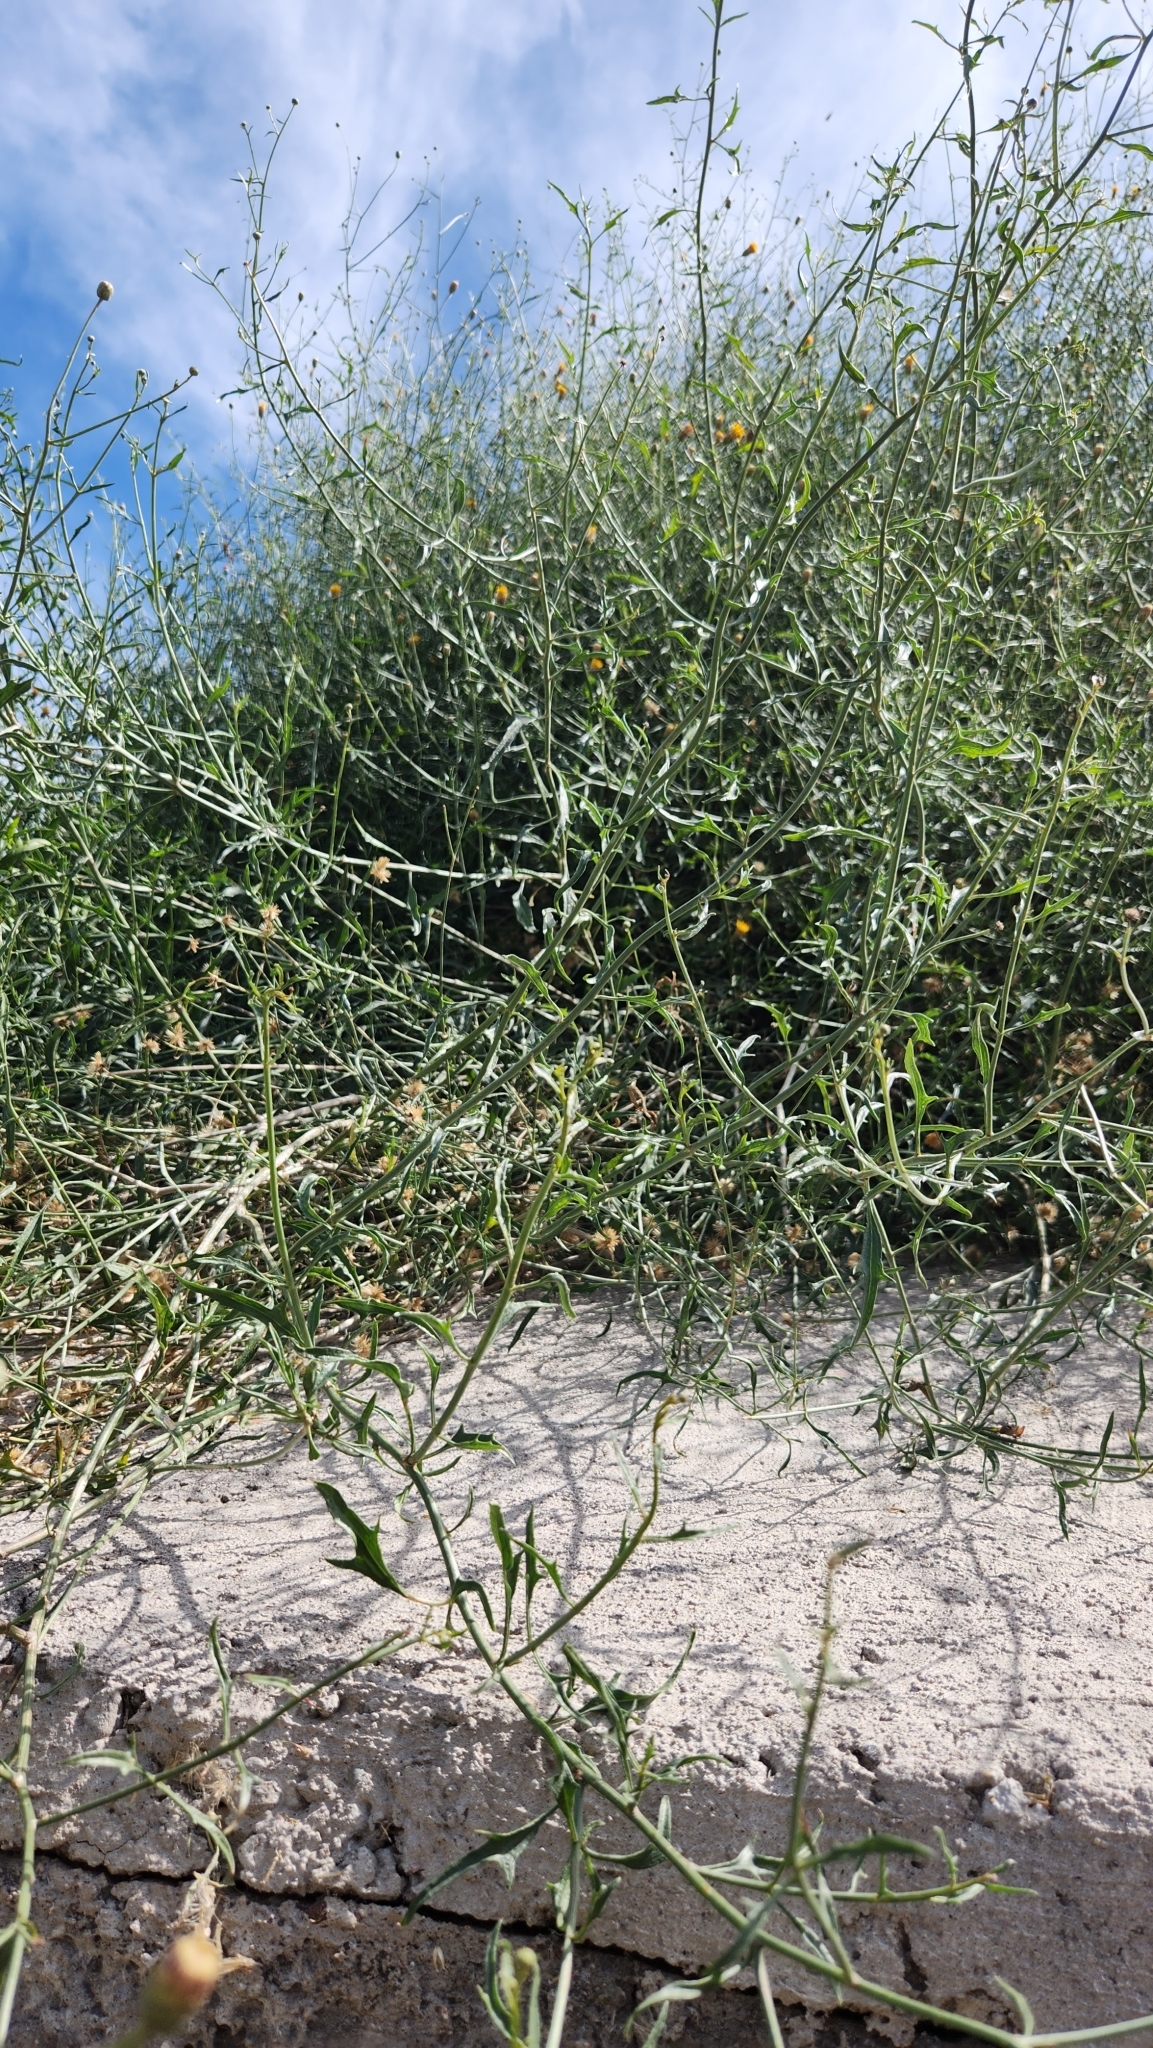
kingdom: Plantae
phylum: Tracheophyta
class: Magnoliopsida
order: Asterales
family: Asteraceae
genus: Bebbia
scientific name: Bebbia atriplicifolia
